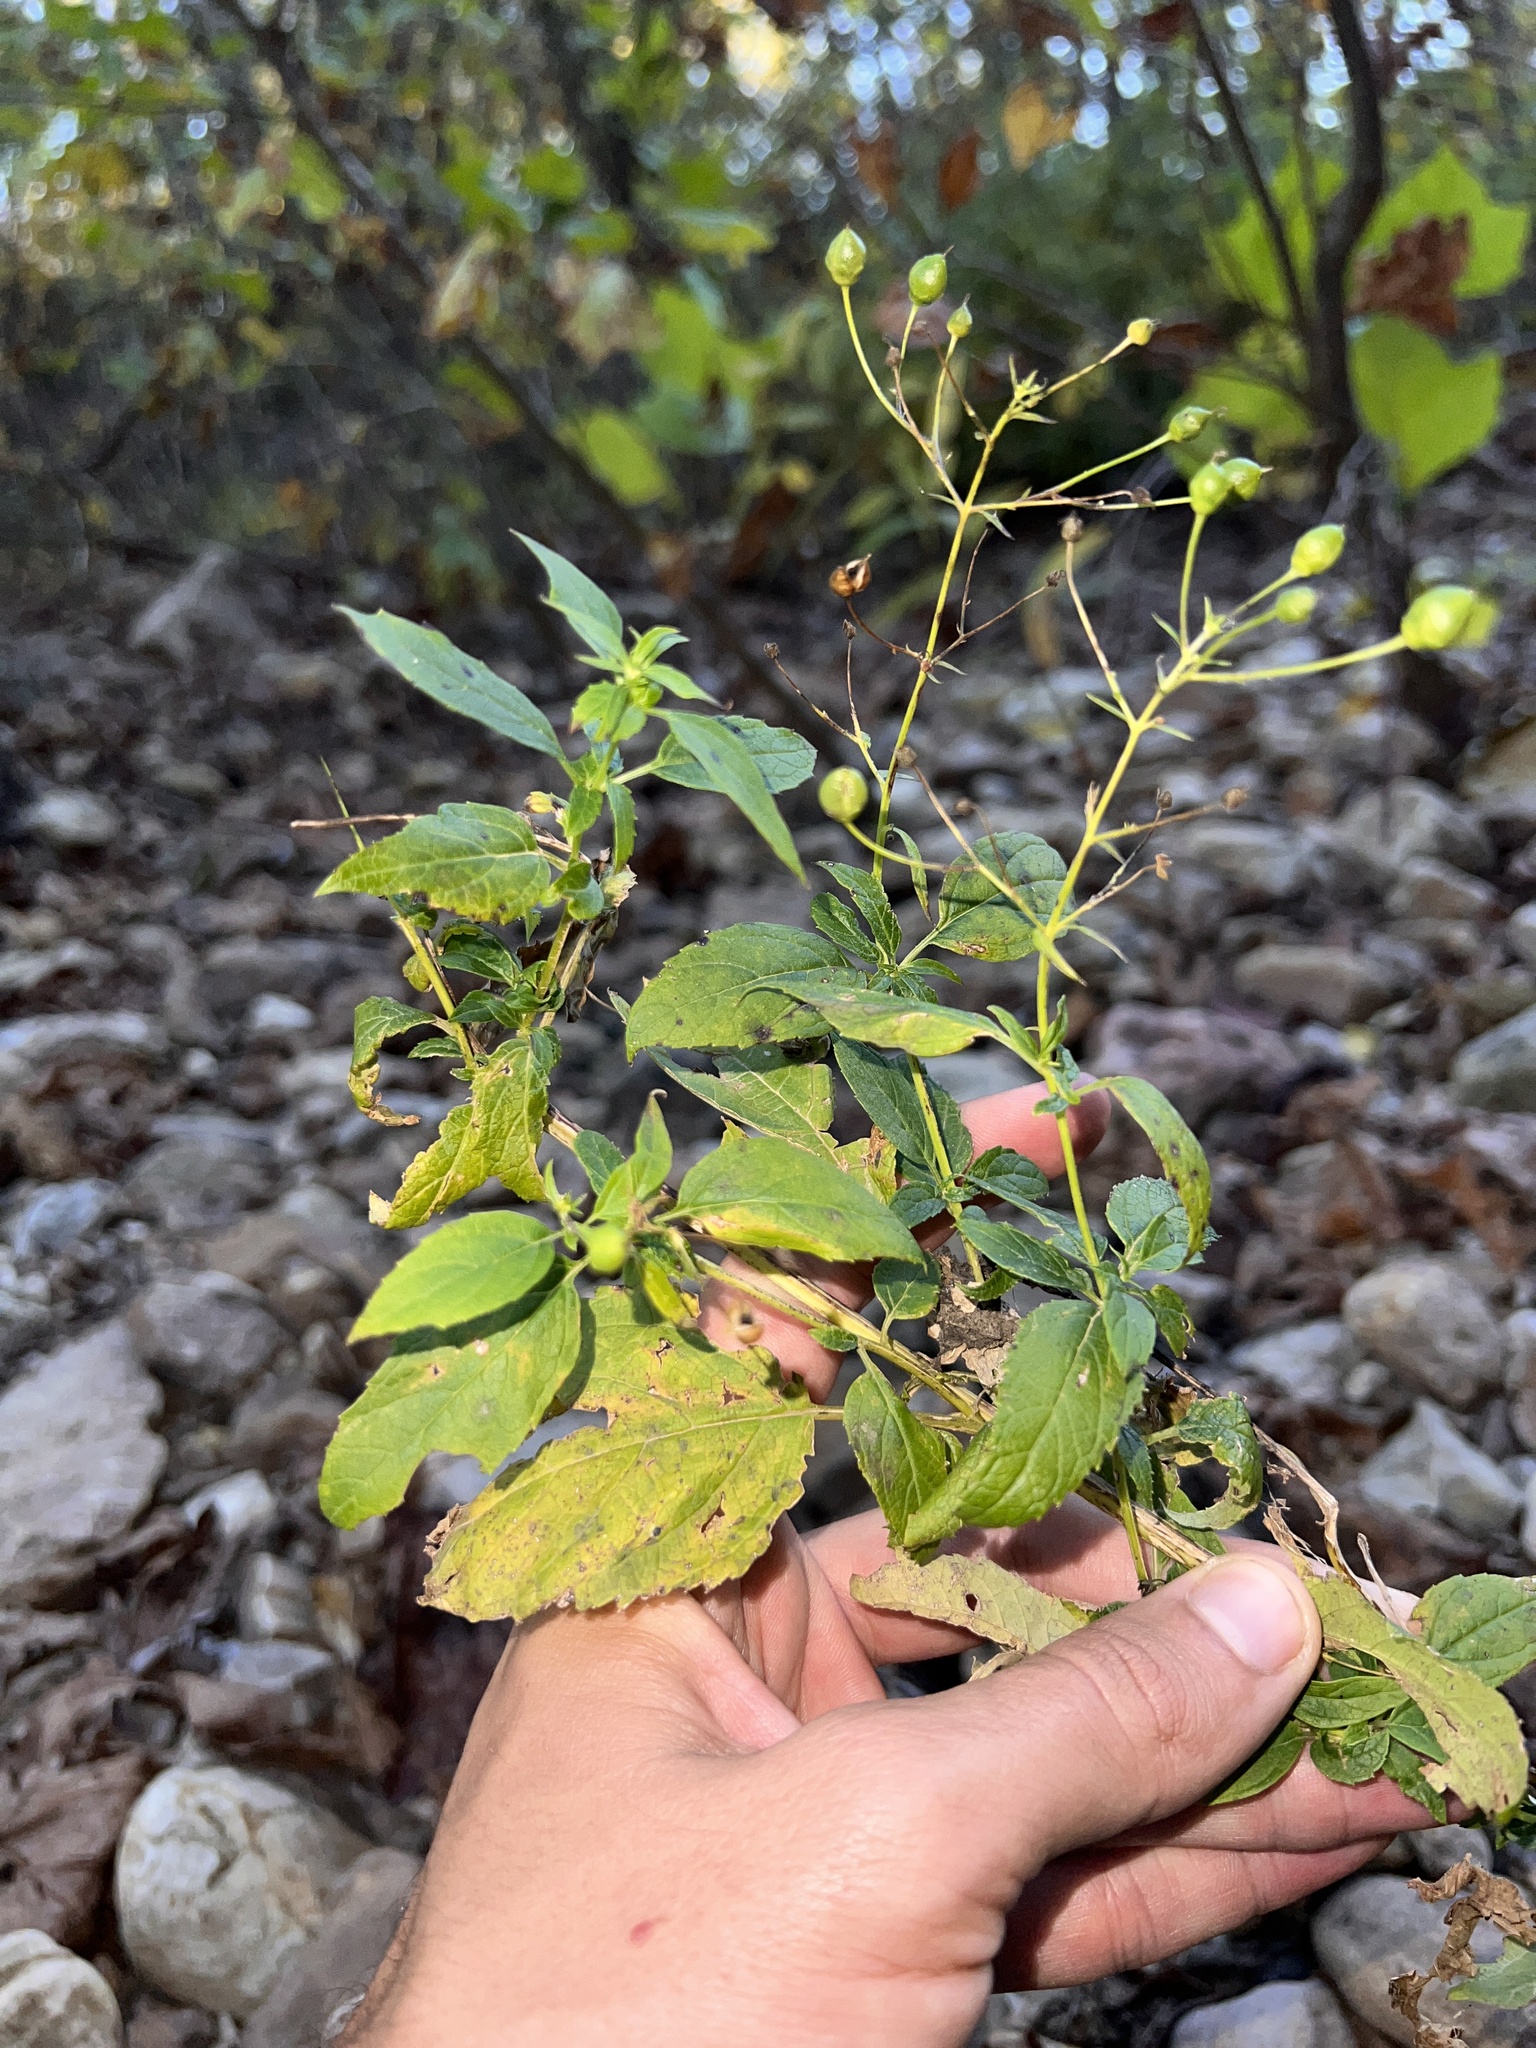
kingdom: Plantae
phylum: Tracheophyta
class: Magnoliopsida
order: Lamiales
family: Scrophulariaceae
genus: Scrophularia
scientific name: Scrophularia marilandica
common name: Eastern figwort
